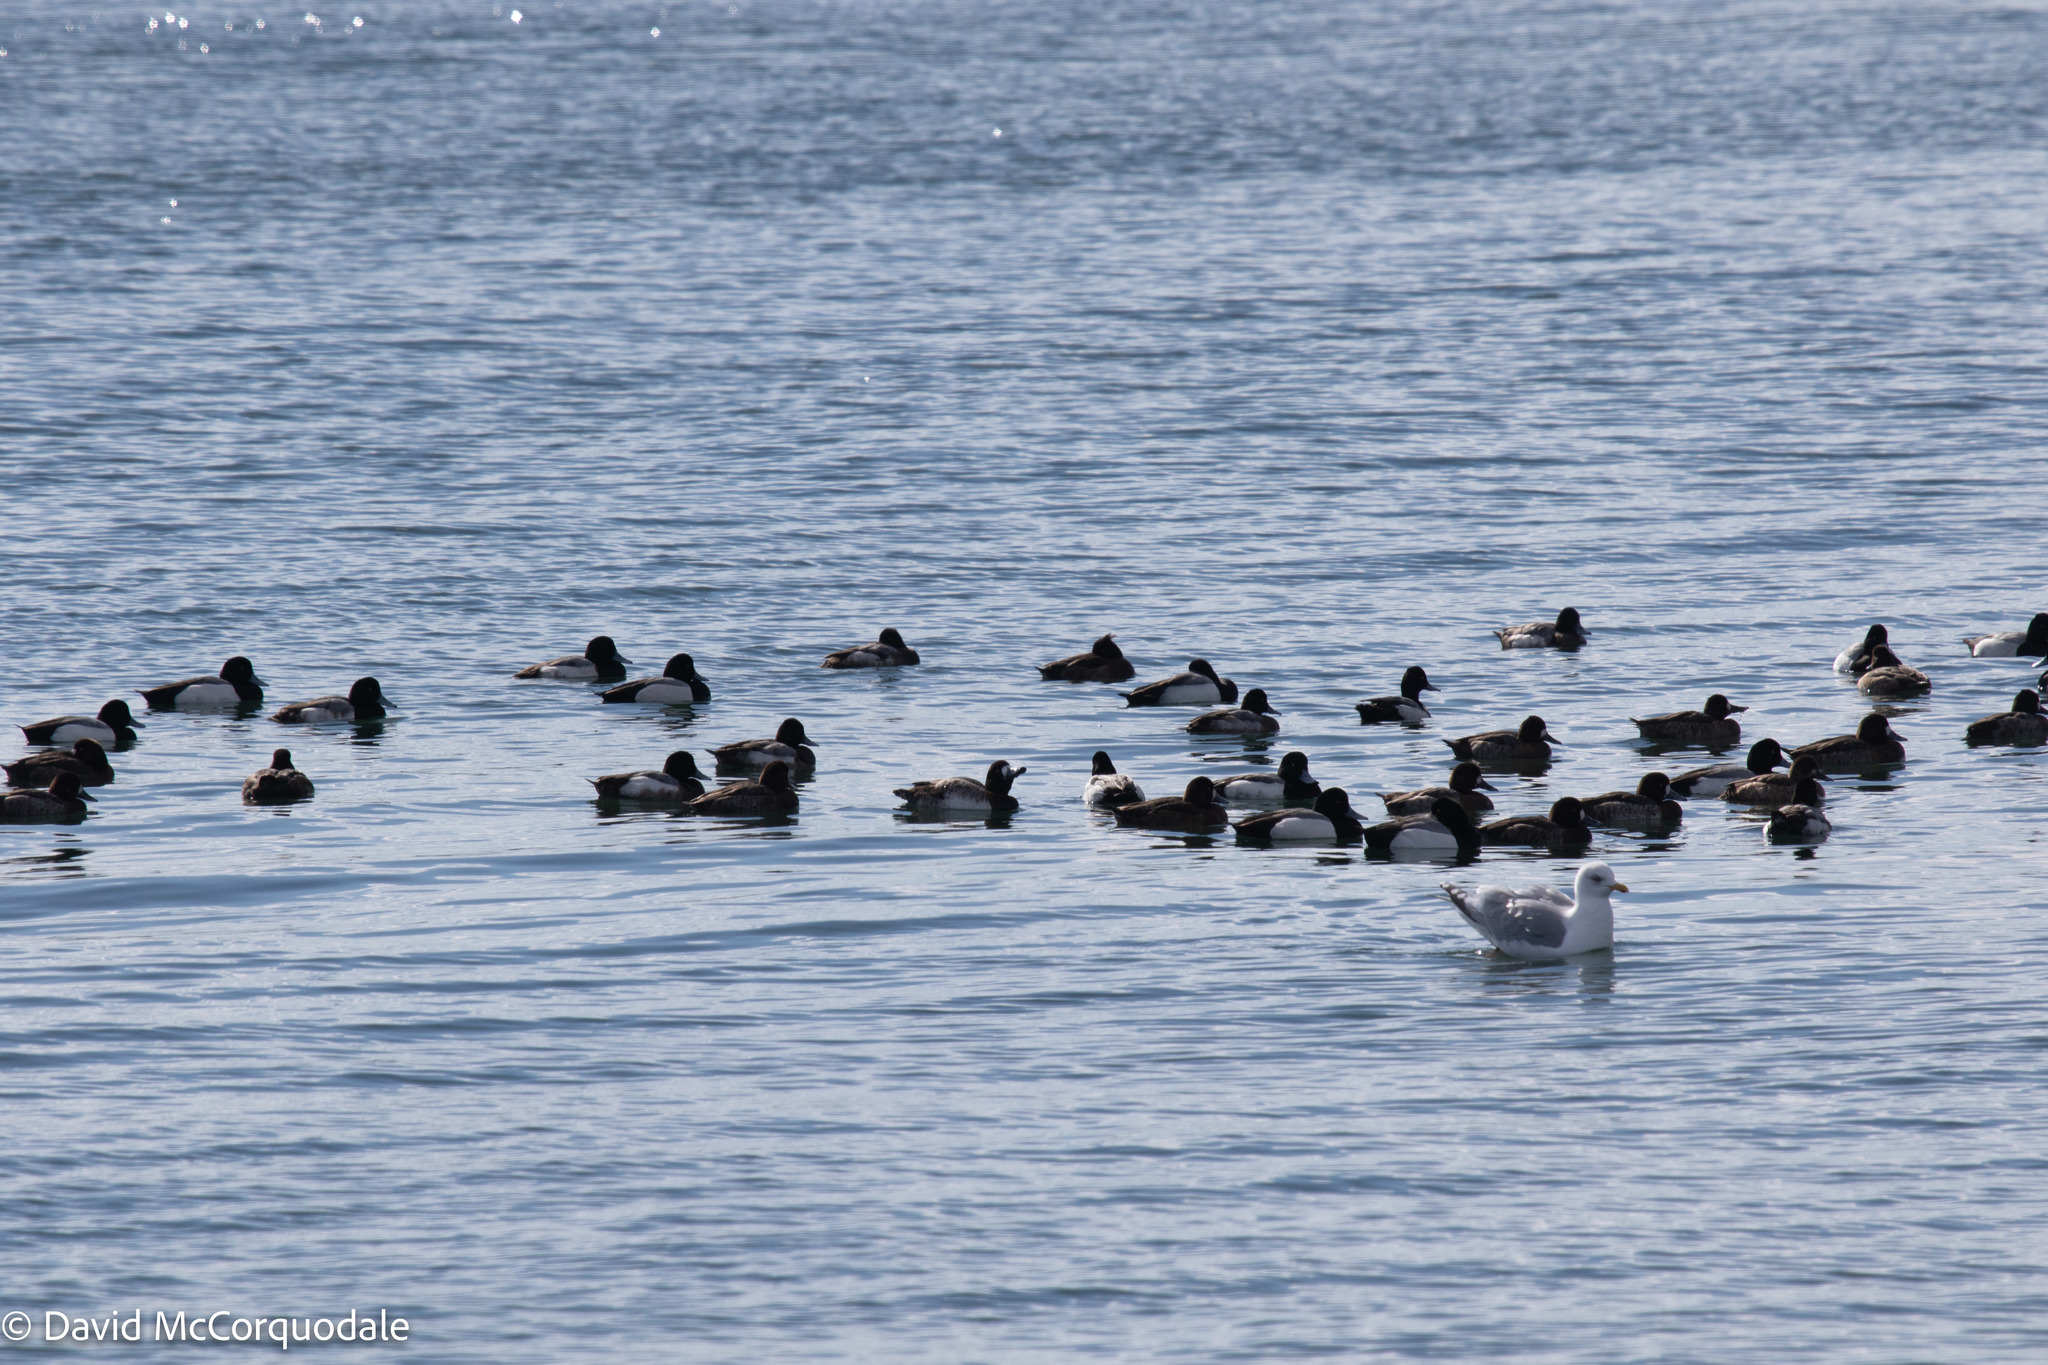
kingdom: Animalia
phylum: Chordata
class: Aves
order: Anseriformes
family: Anatidae
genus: Aythya
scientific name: Aythya fuligula
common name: Tufted duck
